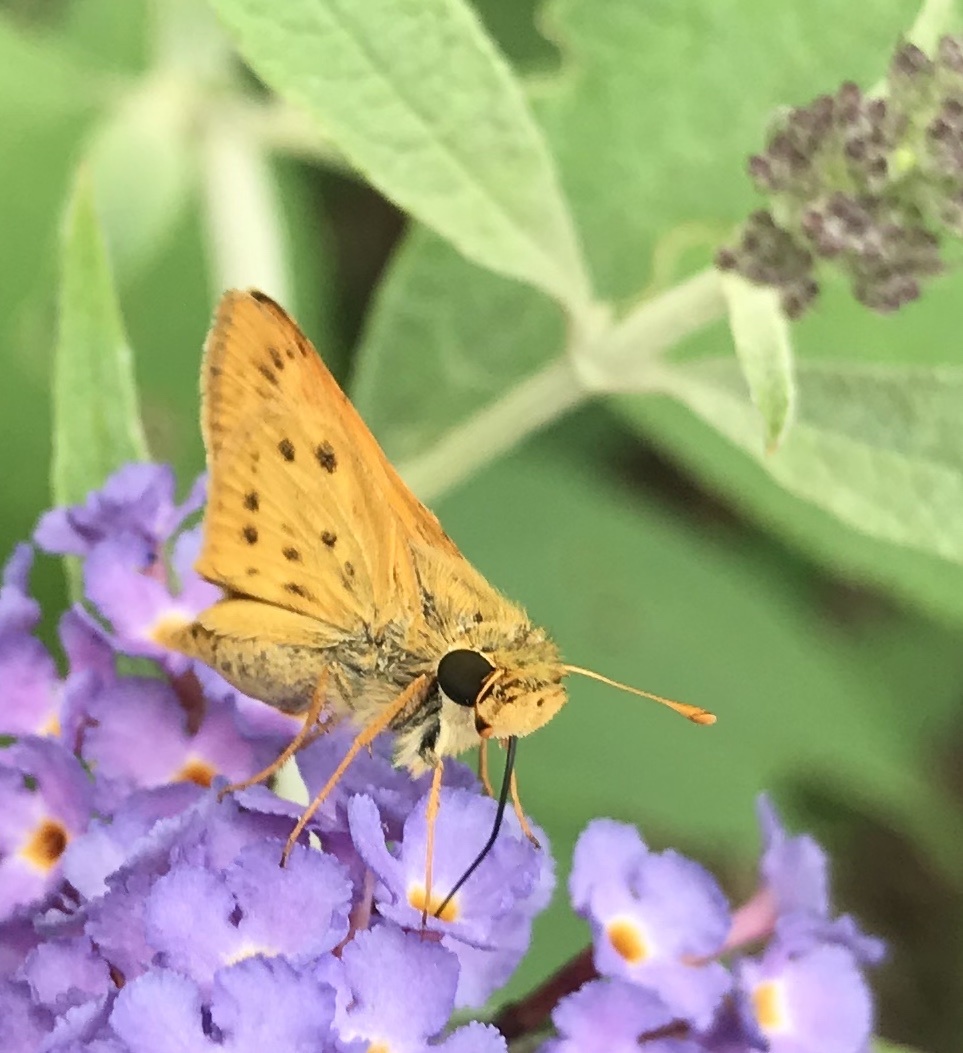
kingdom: Animalia
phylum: Arthropoda
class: Insecta
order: Lepidoptera
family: Hesperiidae
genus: Hylephila
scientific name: Hylephila phyleus
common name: Fiery skipper
